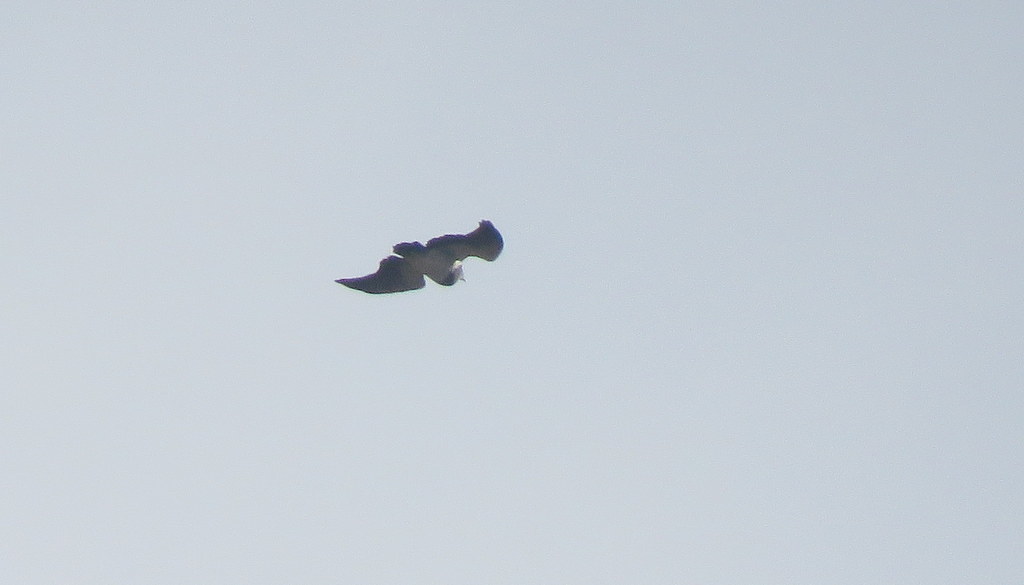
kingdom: Animalia
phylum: Chordata
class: Aves
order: Accipitriformes
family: Accipitridae
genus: Geranoaetus
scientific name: Geranoaetus melanoleucus
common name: Black-chested buzzard-eagle
